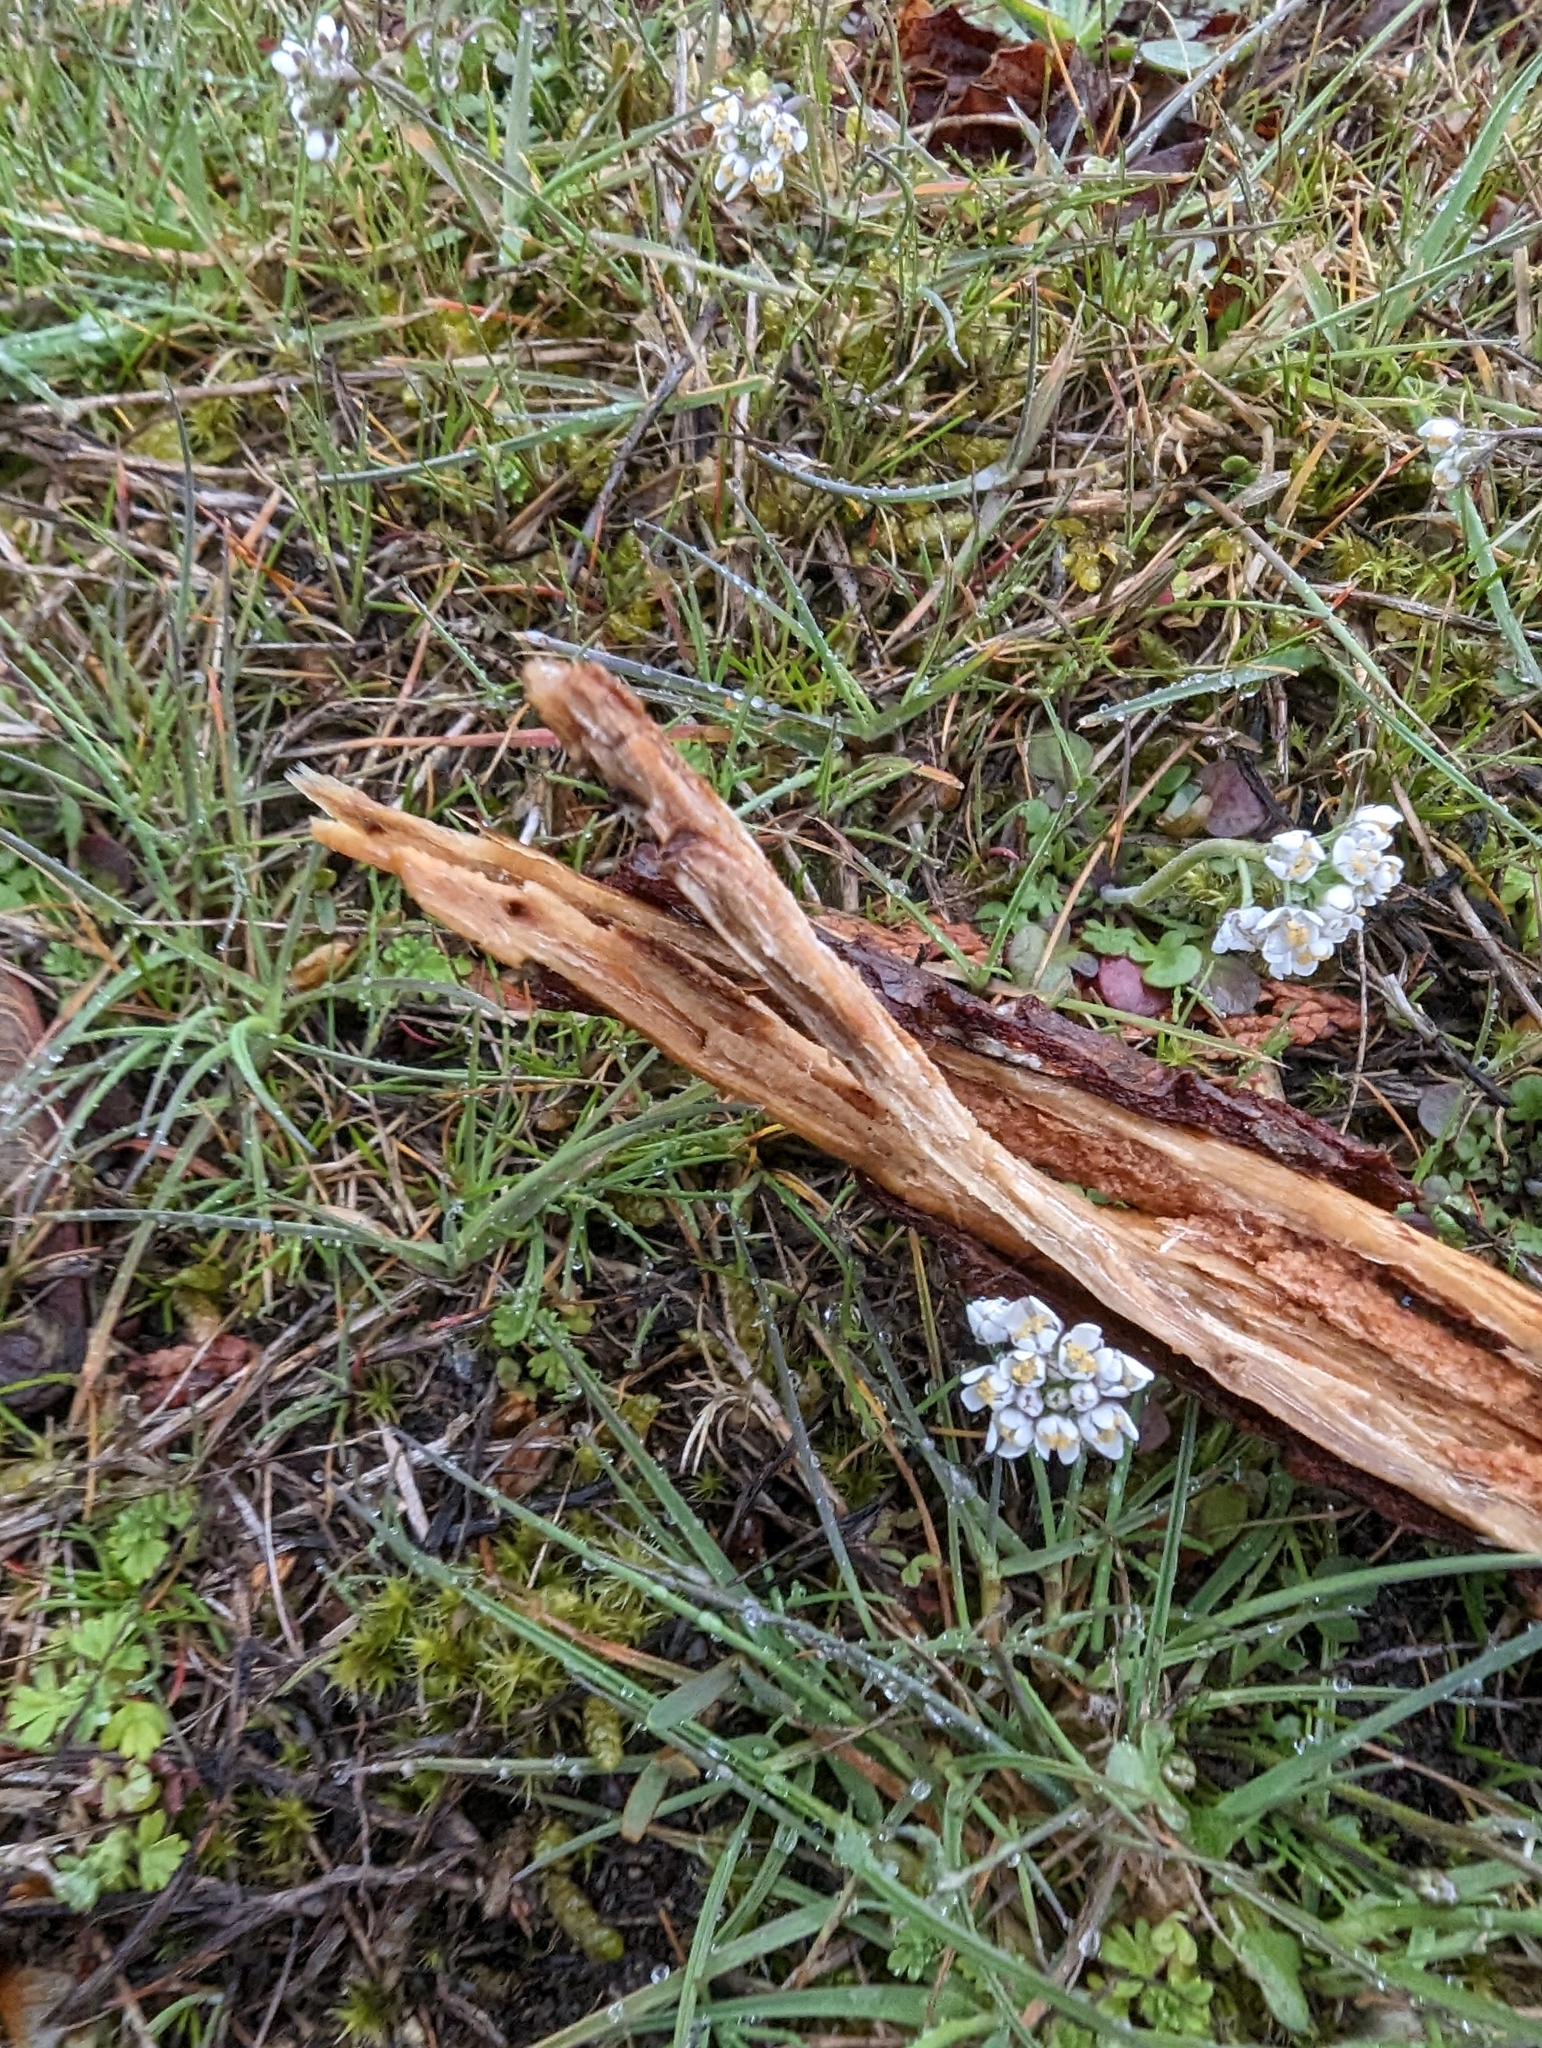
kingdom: Plantae
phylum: Tracheophyta
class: Magnoliopsida
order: Brassicales
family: Brassicaceae
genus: Teesdalia
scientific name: Teesdalia nudicaulis
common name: Shepherd's cress
